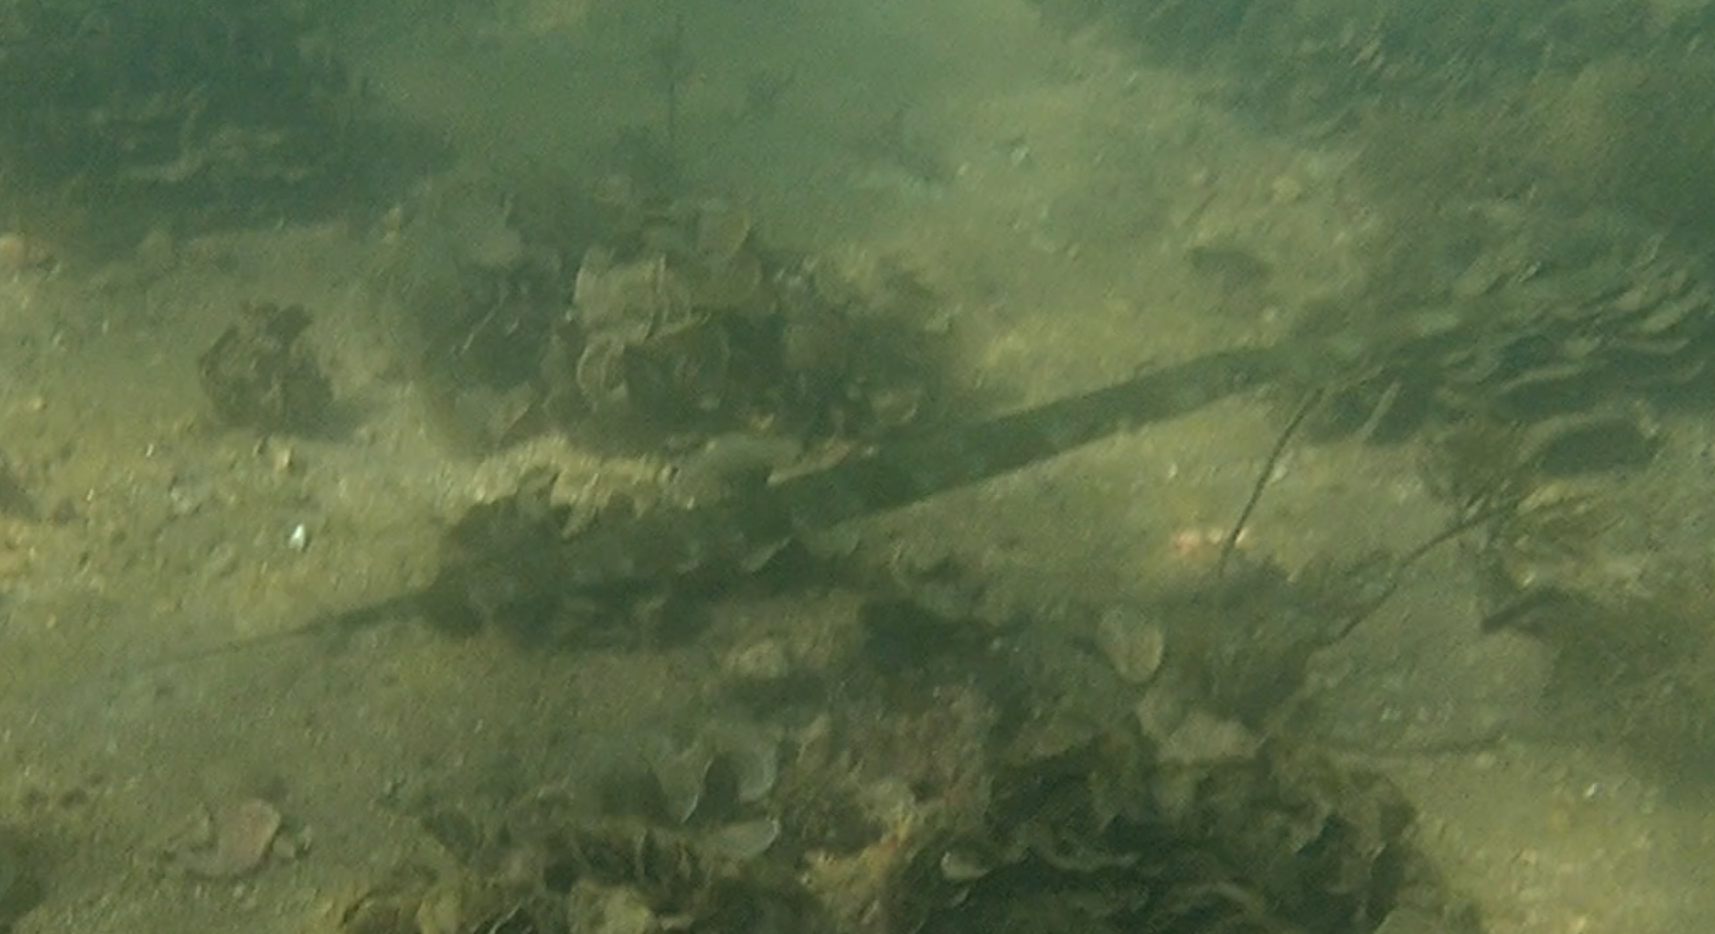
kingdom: Animalia
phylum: Chordata
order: Syngnathiformes
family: Fistulariidae
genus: Fistularia
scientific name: Fistularia commersonii
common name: Bluespotted cornetfish
